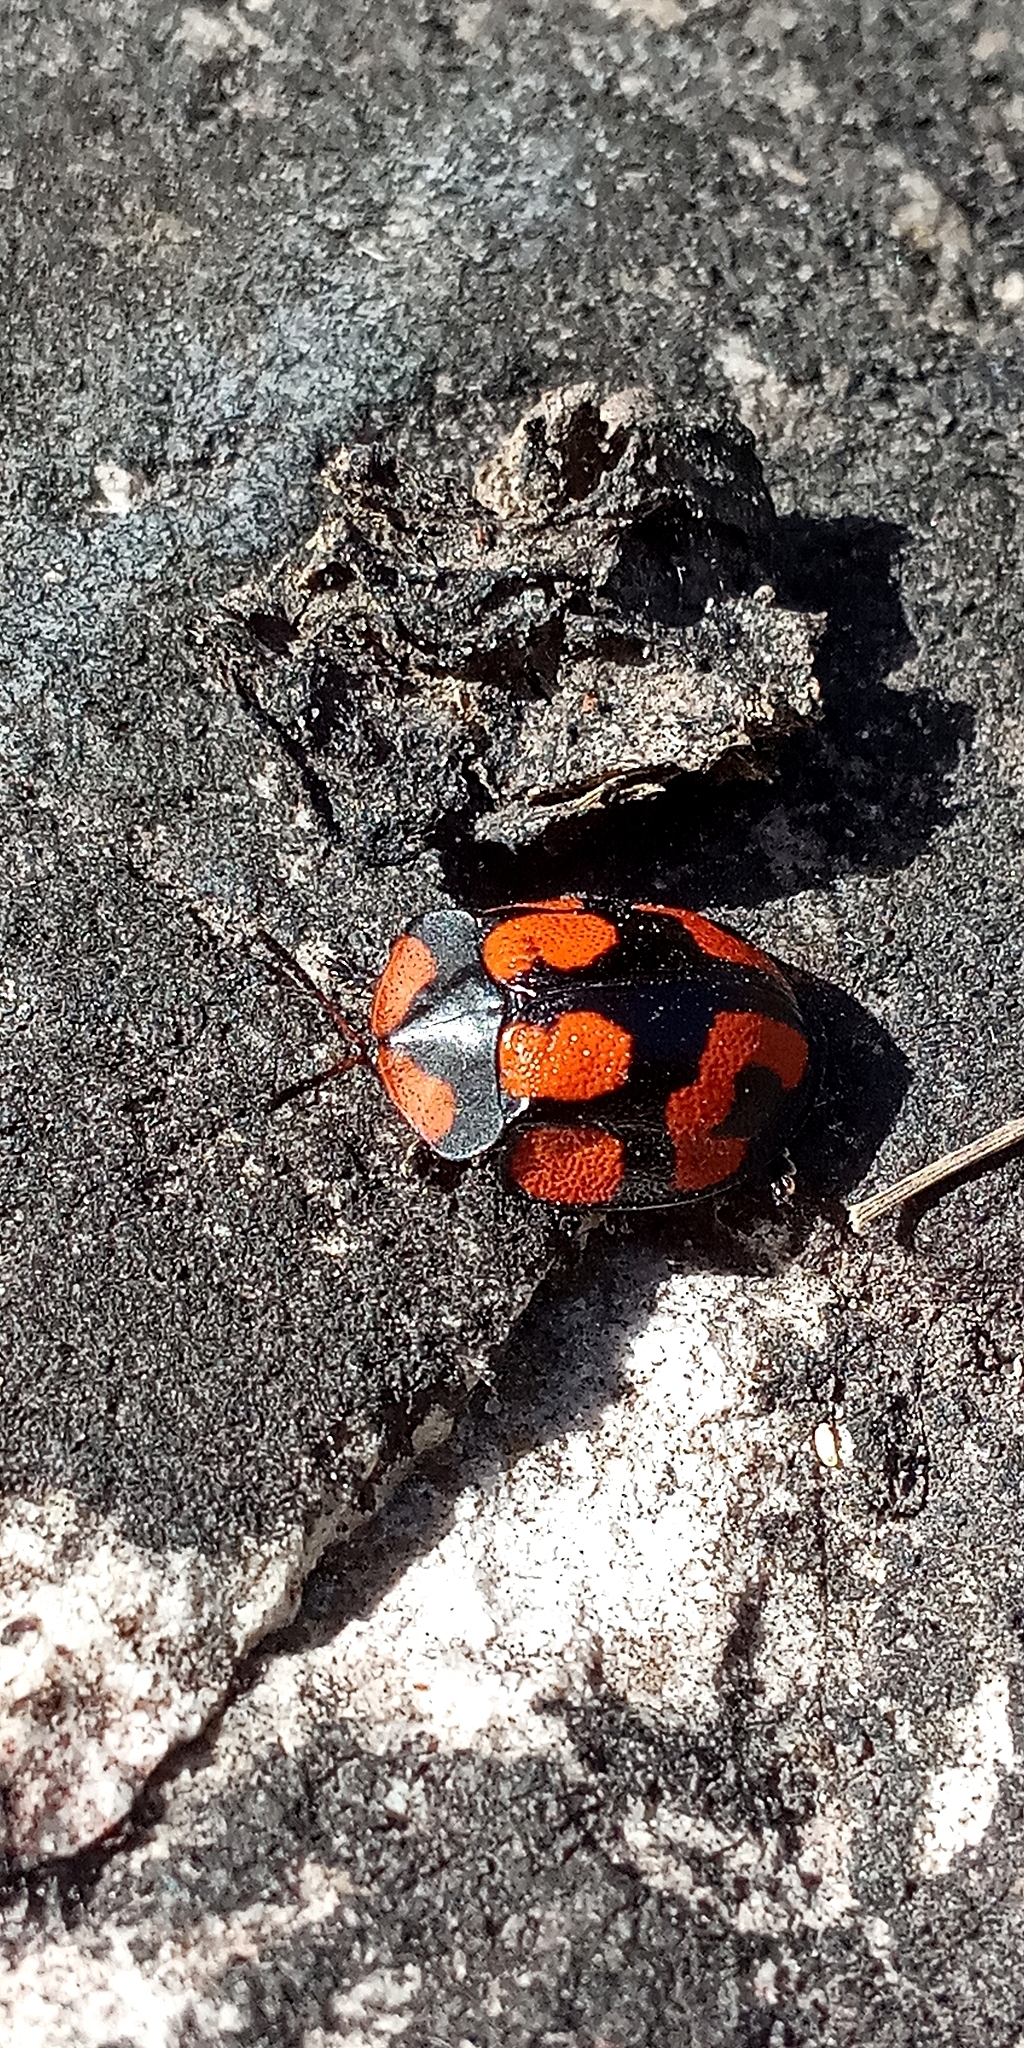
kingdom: Animalia
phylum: Arthropoda
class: Insecta
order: Coleoptera
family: Chrysomelidae
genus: Botanochara
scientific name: Botanochara angulata
